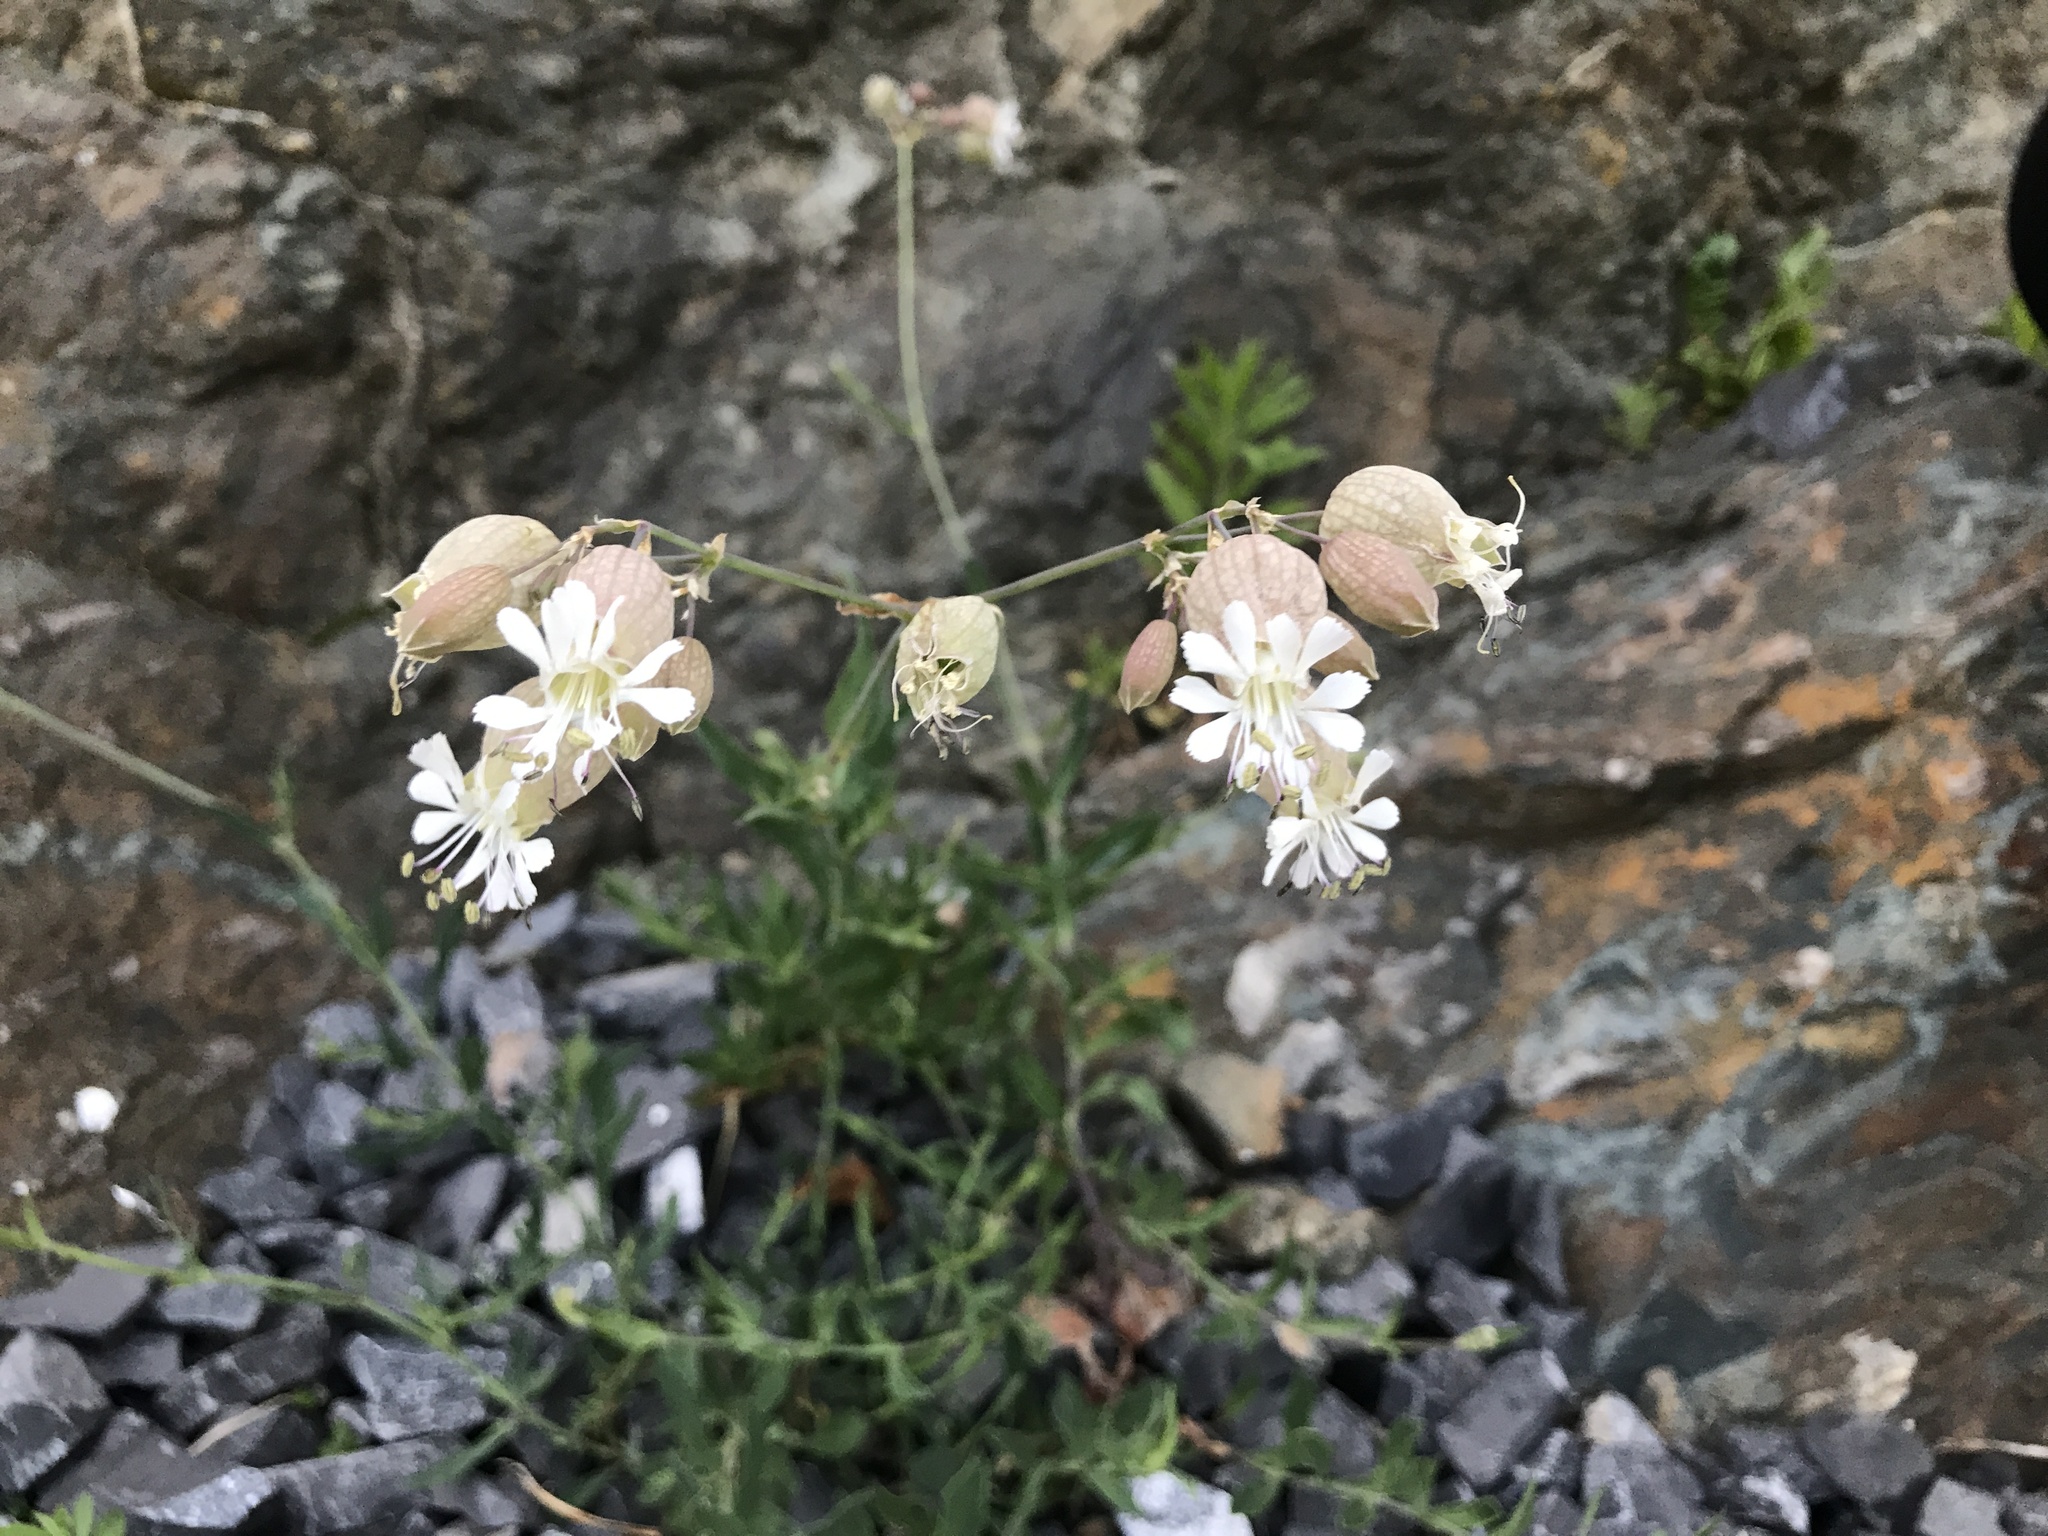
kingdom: Plantae
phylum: Tracheophyta
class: Magnoliopsida
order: Caryophyllales
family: Caryophyllaceae
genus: Silene
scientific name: Silene vulgaris
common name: Bladder campion
